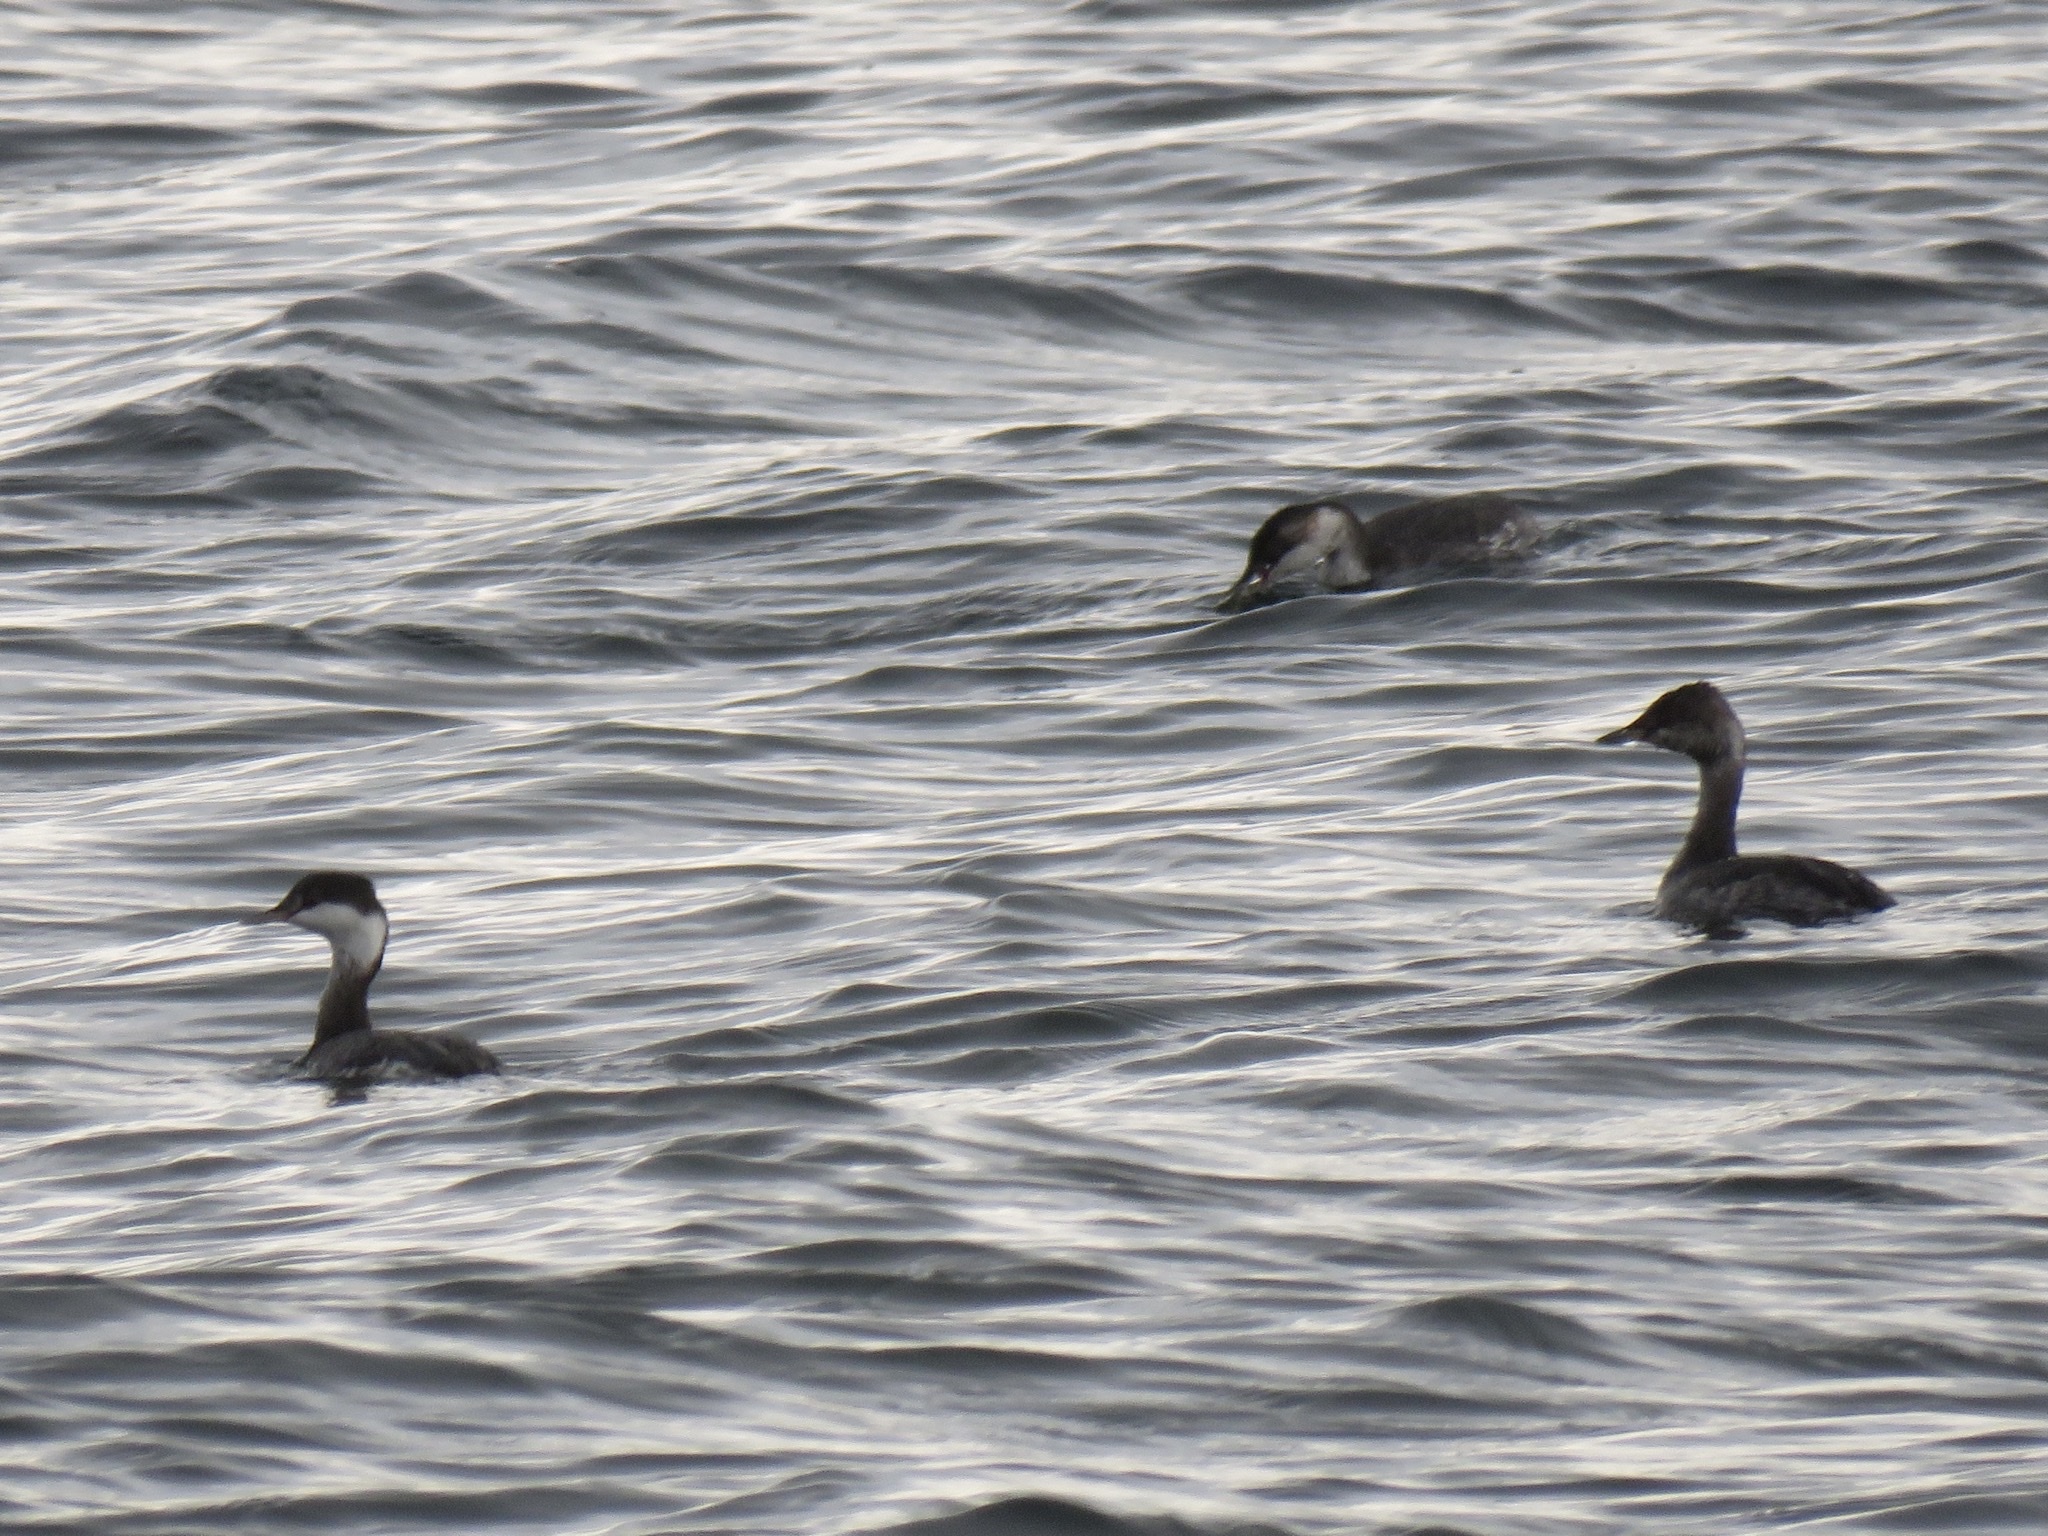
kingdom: Animalia
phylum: Chordata
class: Aves
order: Podicipediformes
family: Podicipedidae
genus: Podiceps
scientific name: Podiceps auritus
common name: Horned grebe
